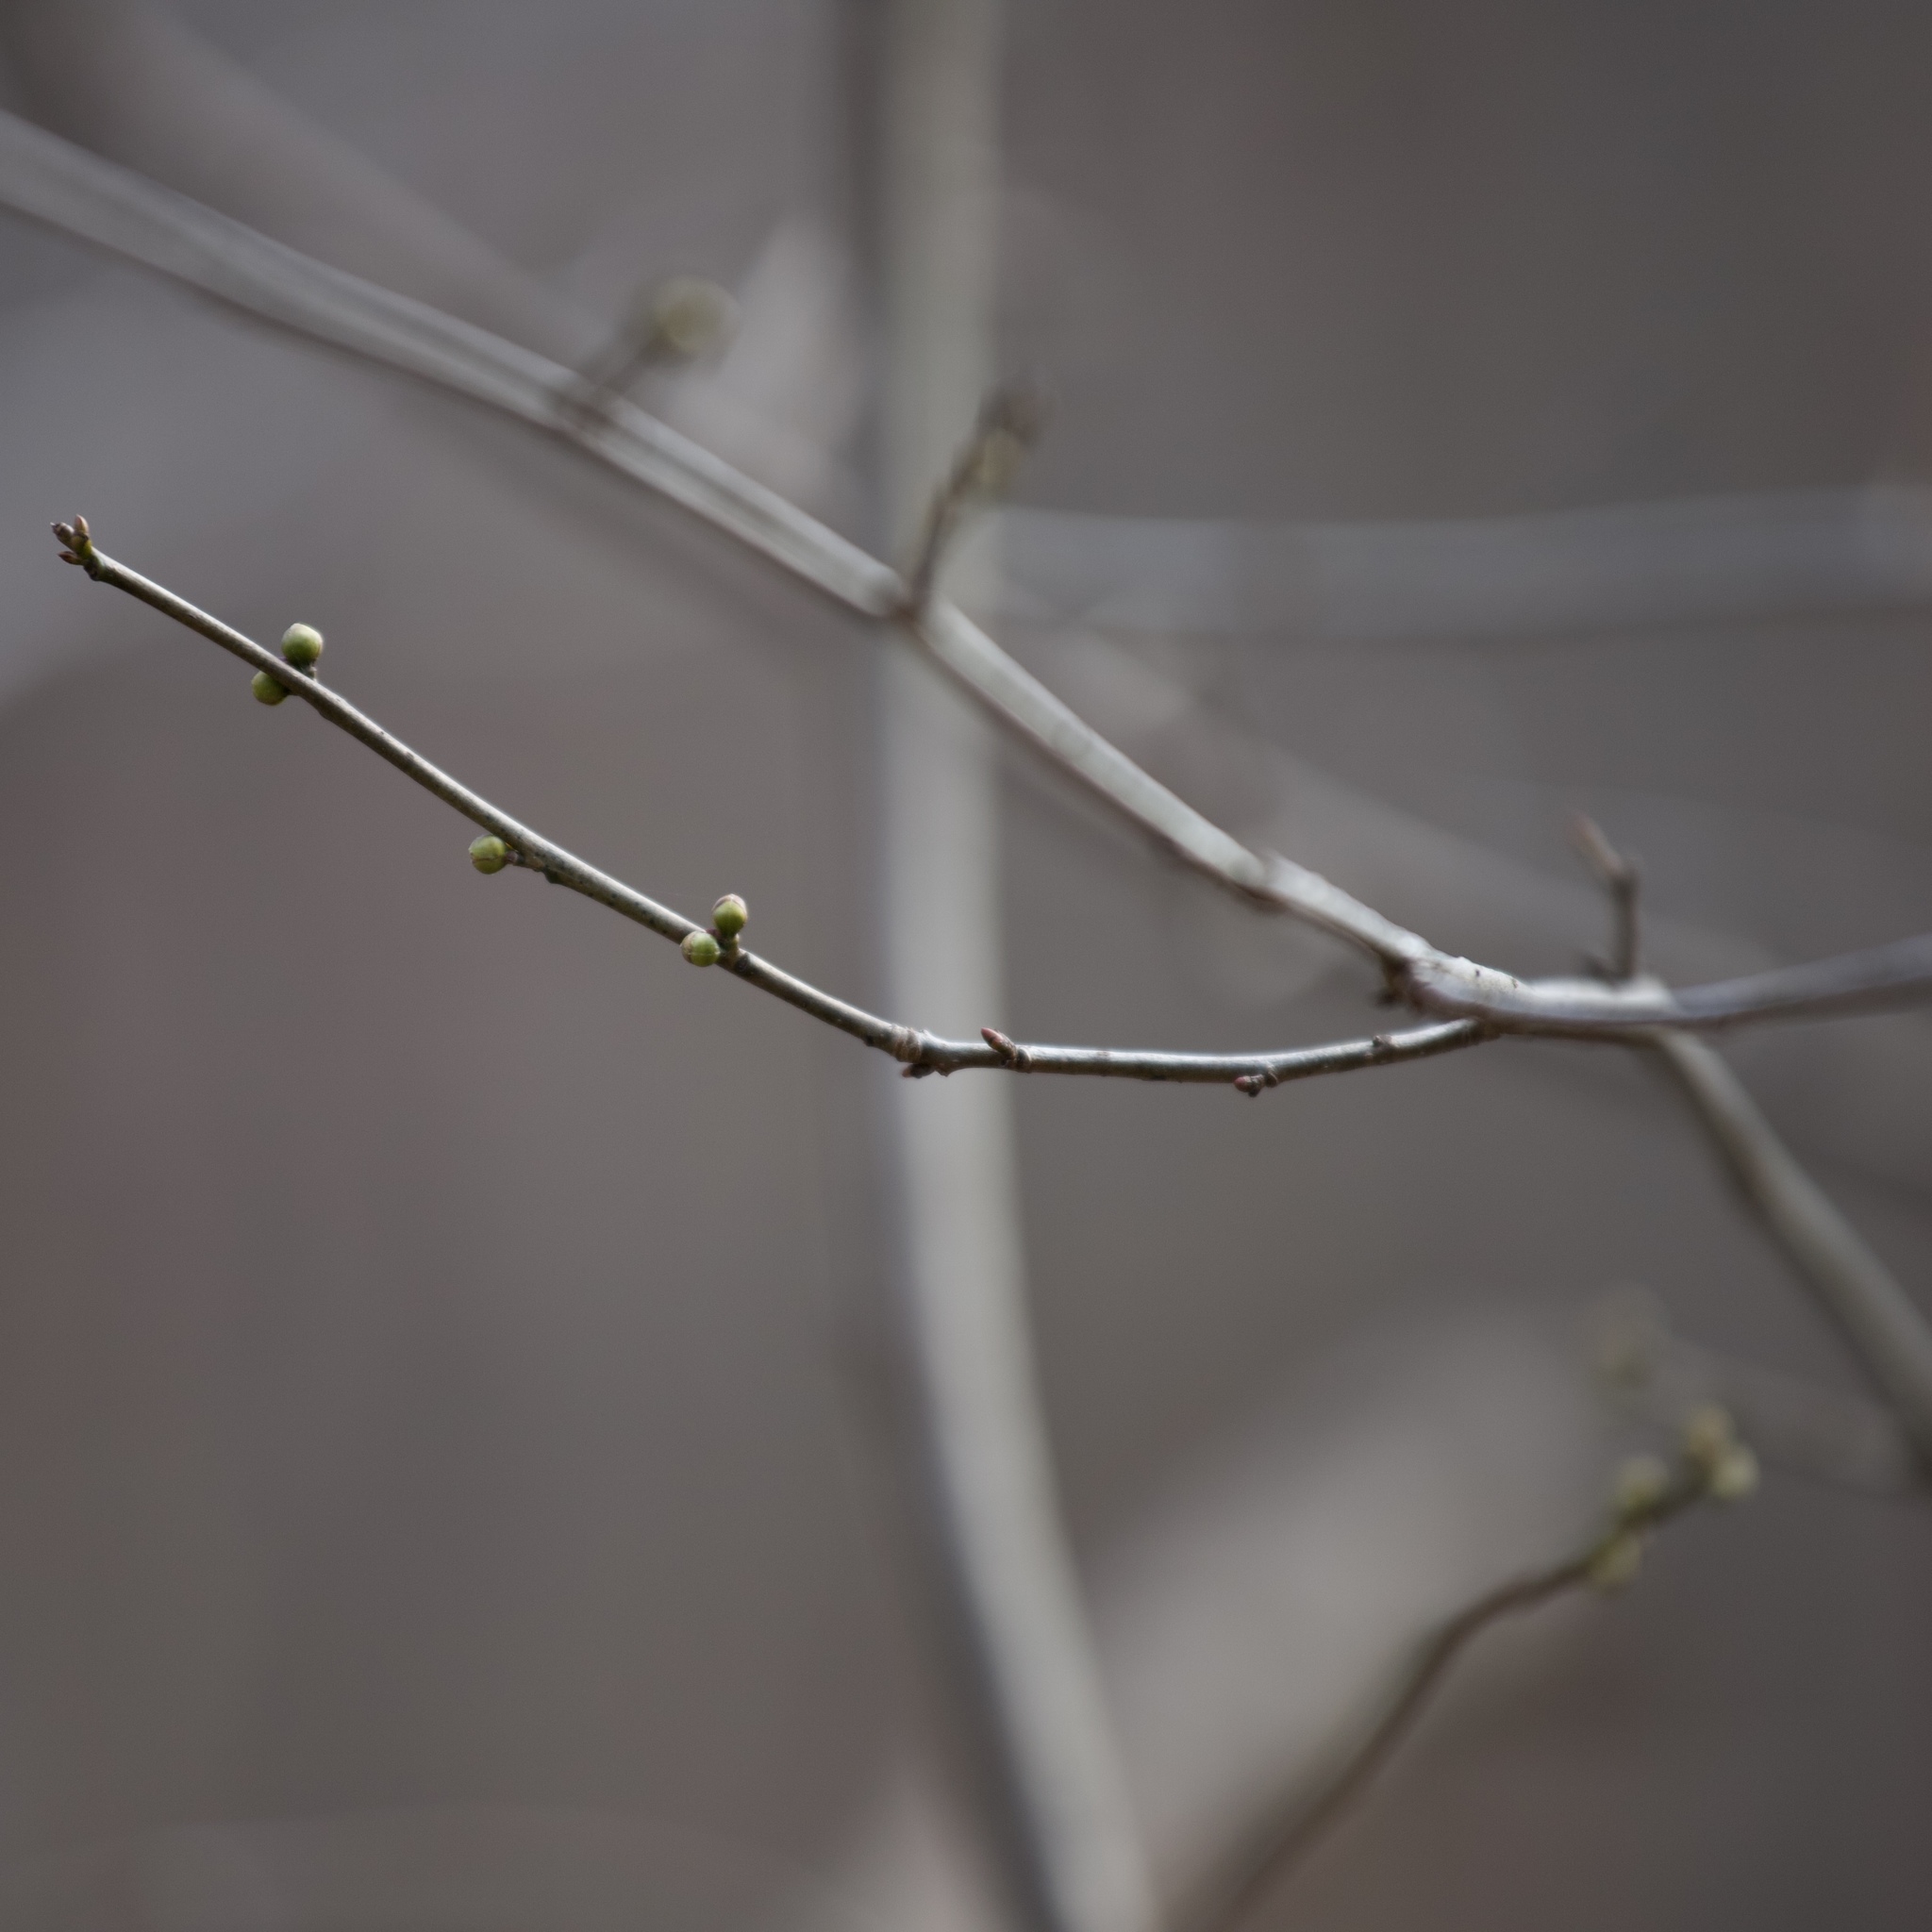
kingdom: Plantae
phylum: Tracheophyta
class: Magnoliopsida
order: Laurales
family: Lauraceae
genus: Lindera
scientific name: Lindera benzoin
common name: Spicebush
